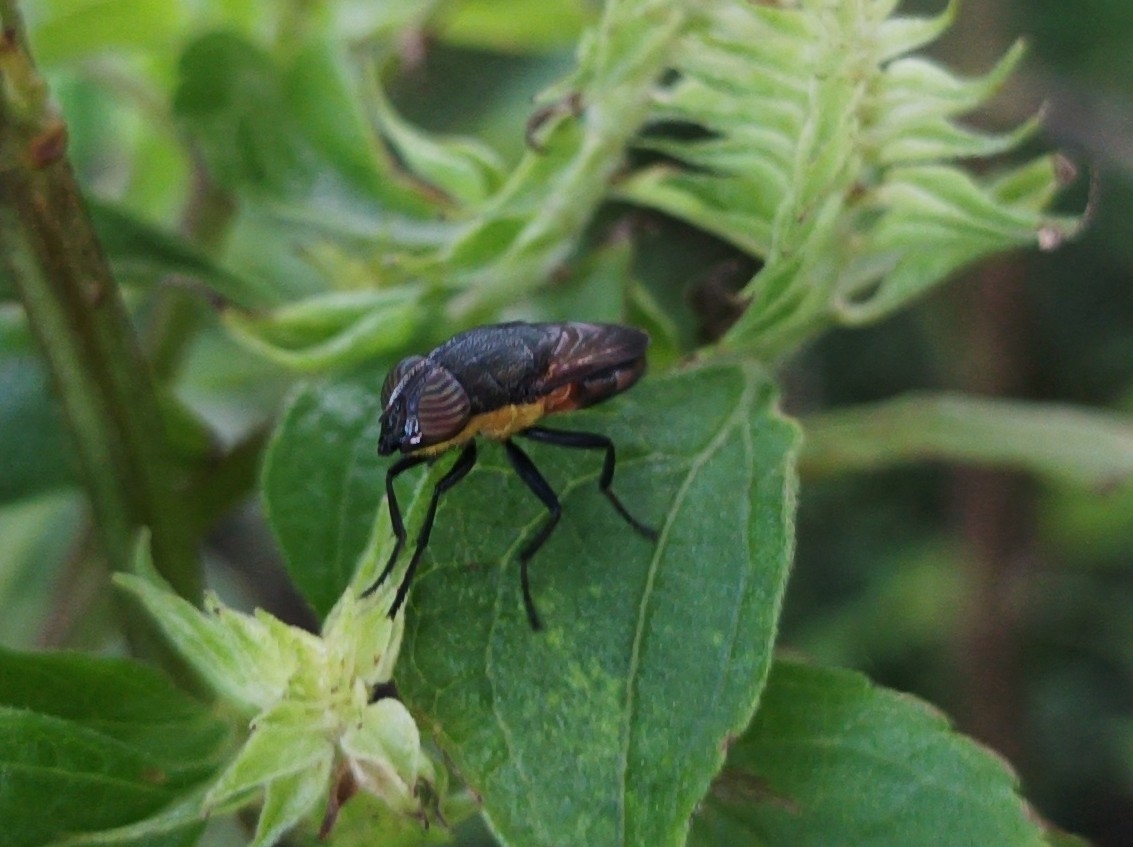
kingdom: Animalia
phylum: Arthropoda
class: Insecta
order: Diptera
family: Calliphoridae
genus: Idiellopsis
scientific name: Idiellopsis xanthogaster
